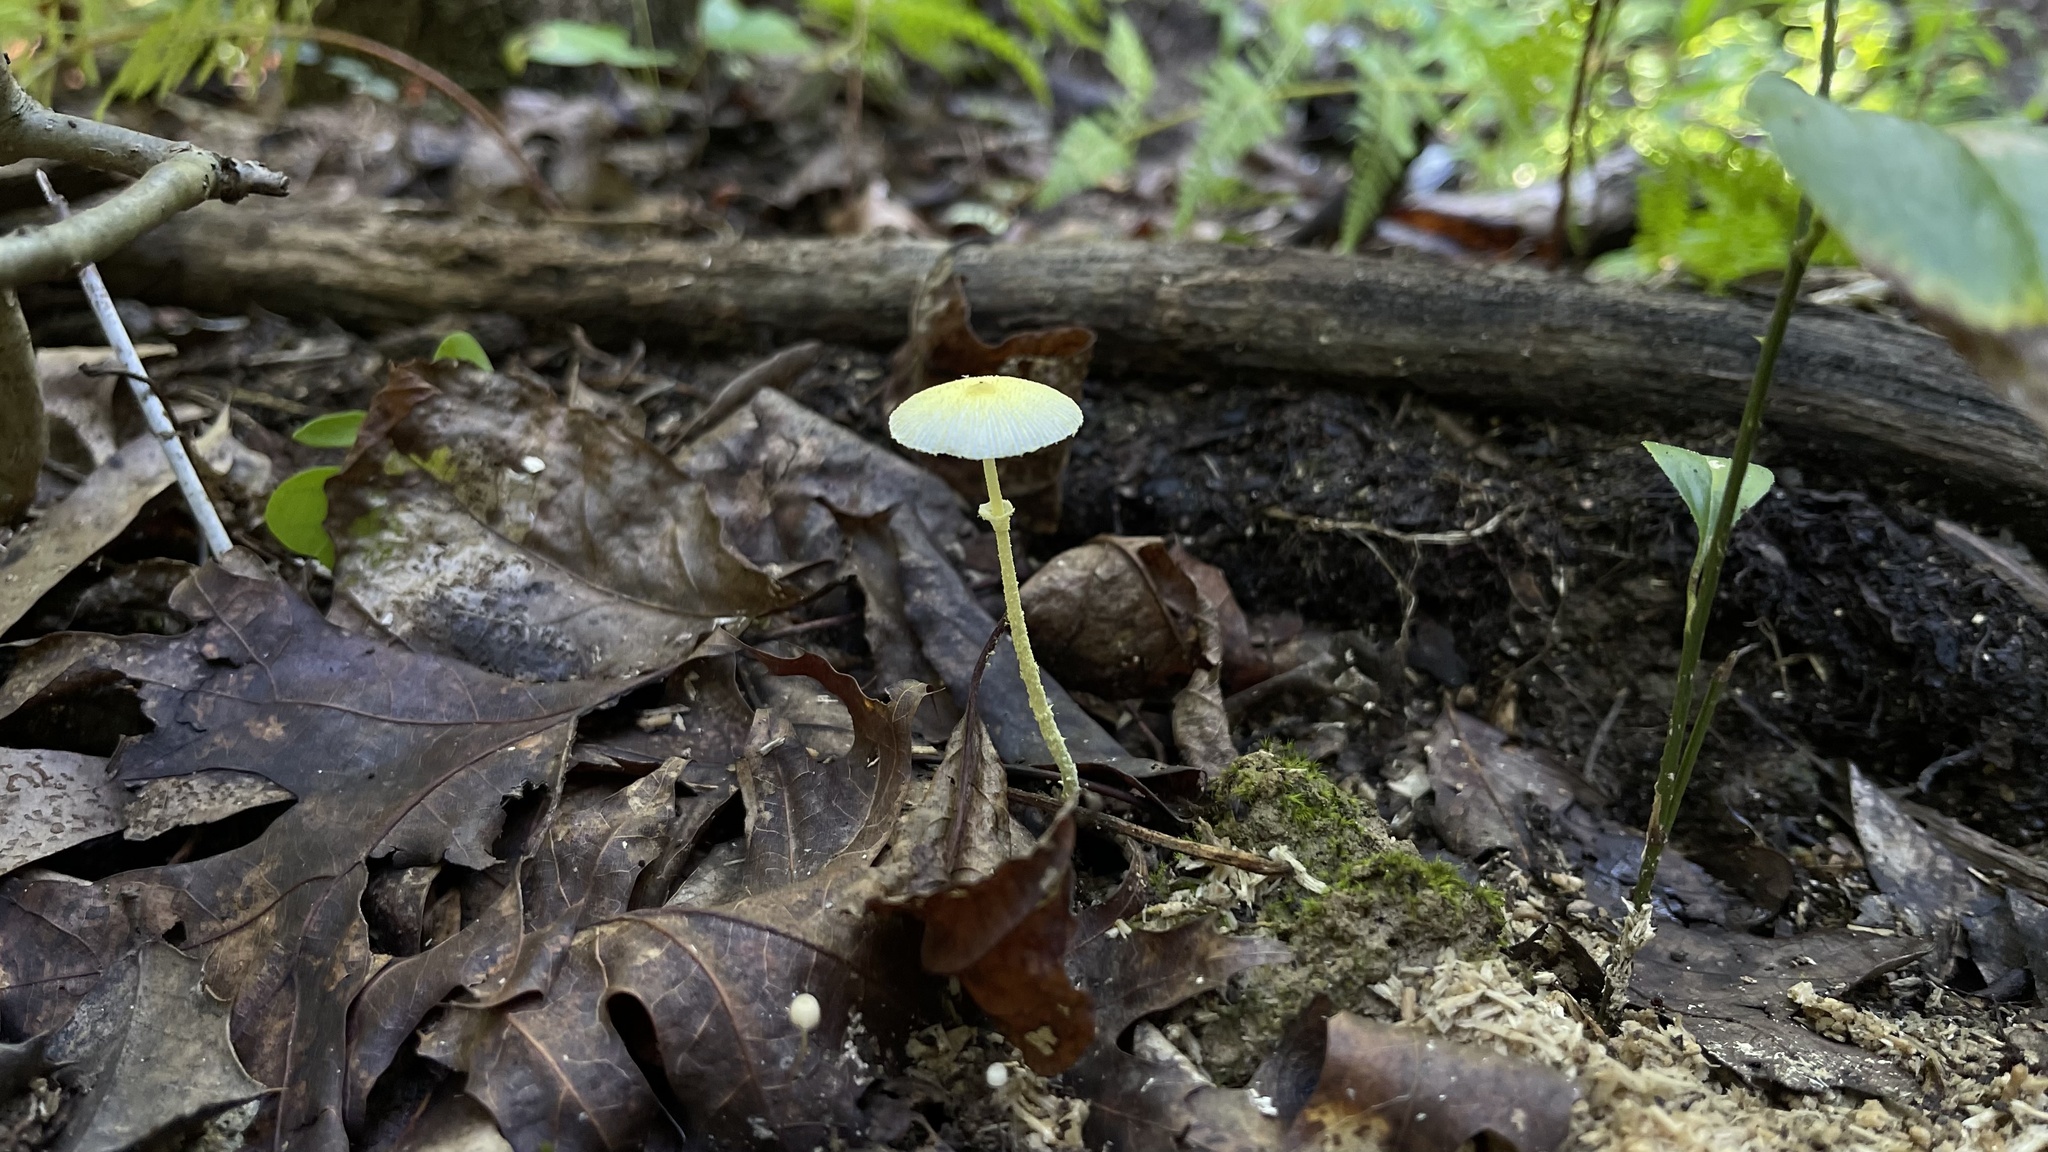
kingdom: Fungi
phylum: Basidiomycota
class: Agaricomycetes
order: Agaricales
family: Agaricaceae
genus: Leucocoprinus
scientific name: Leucocoprinus fragilissimus
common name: Fragile dapperling
